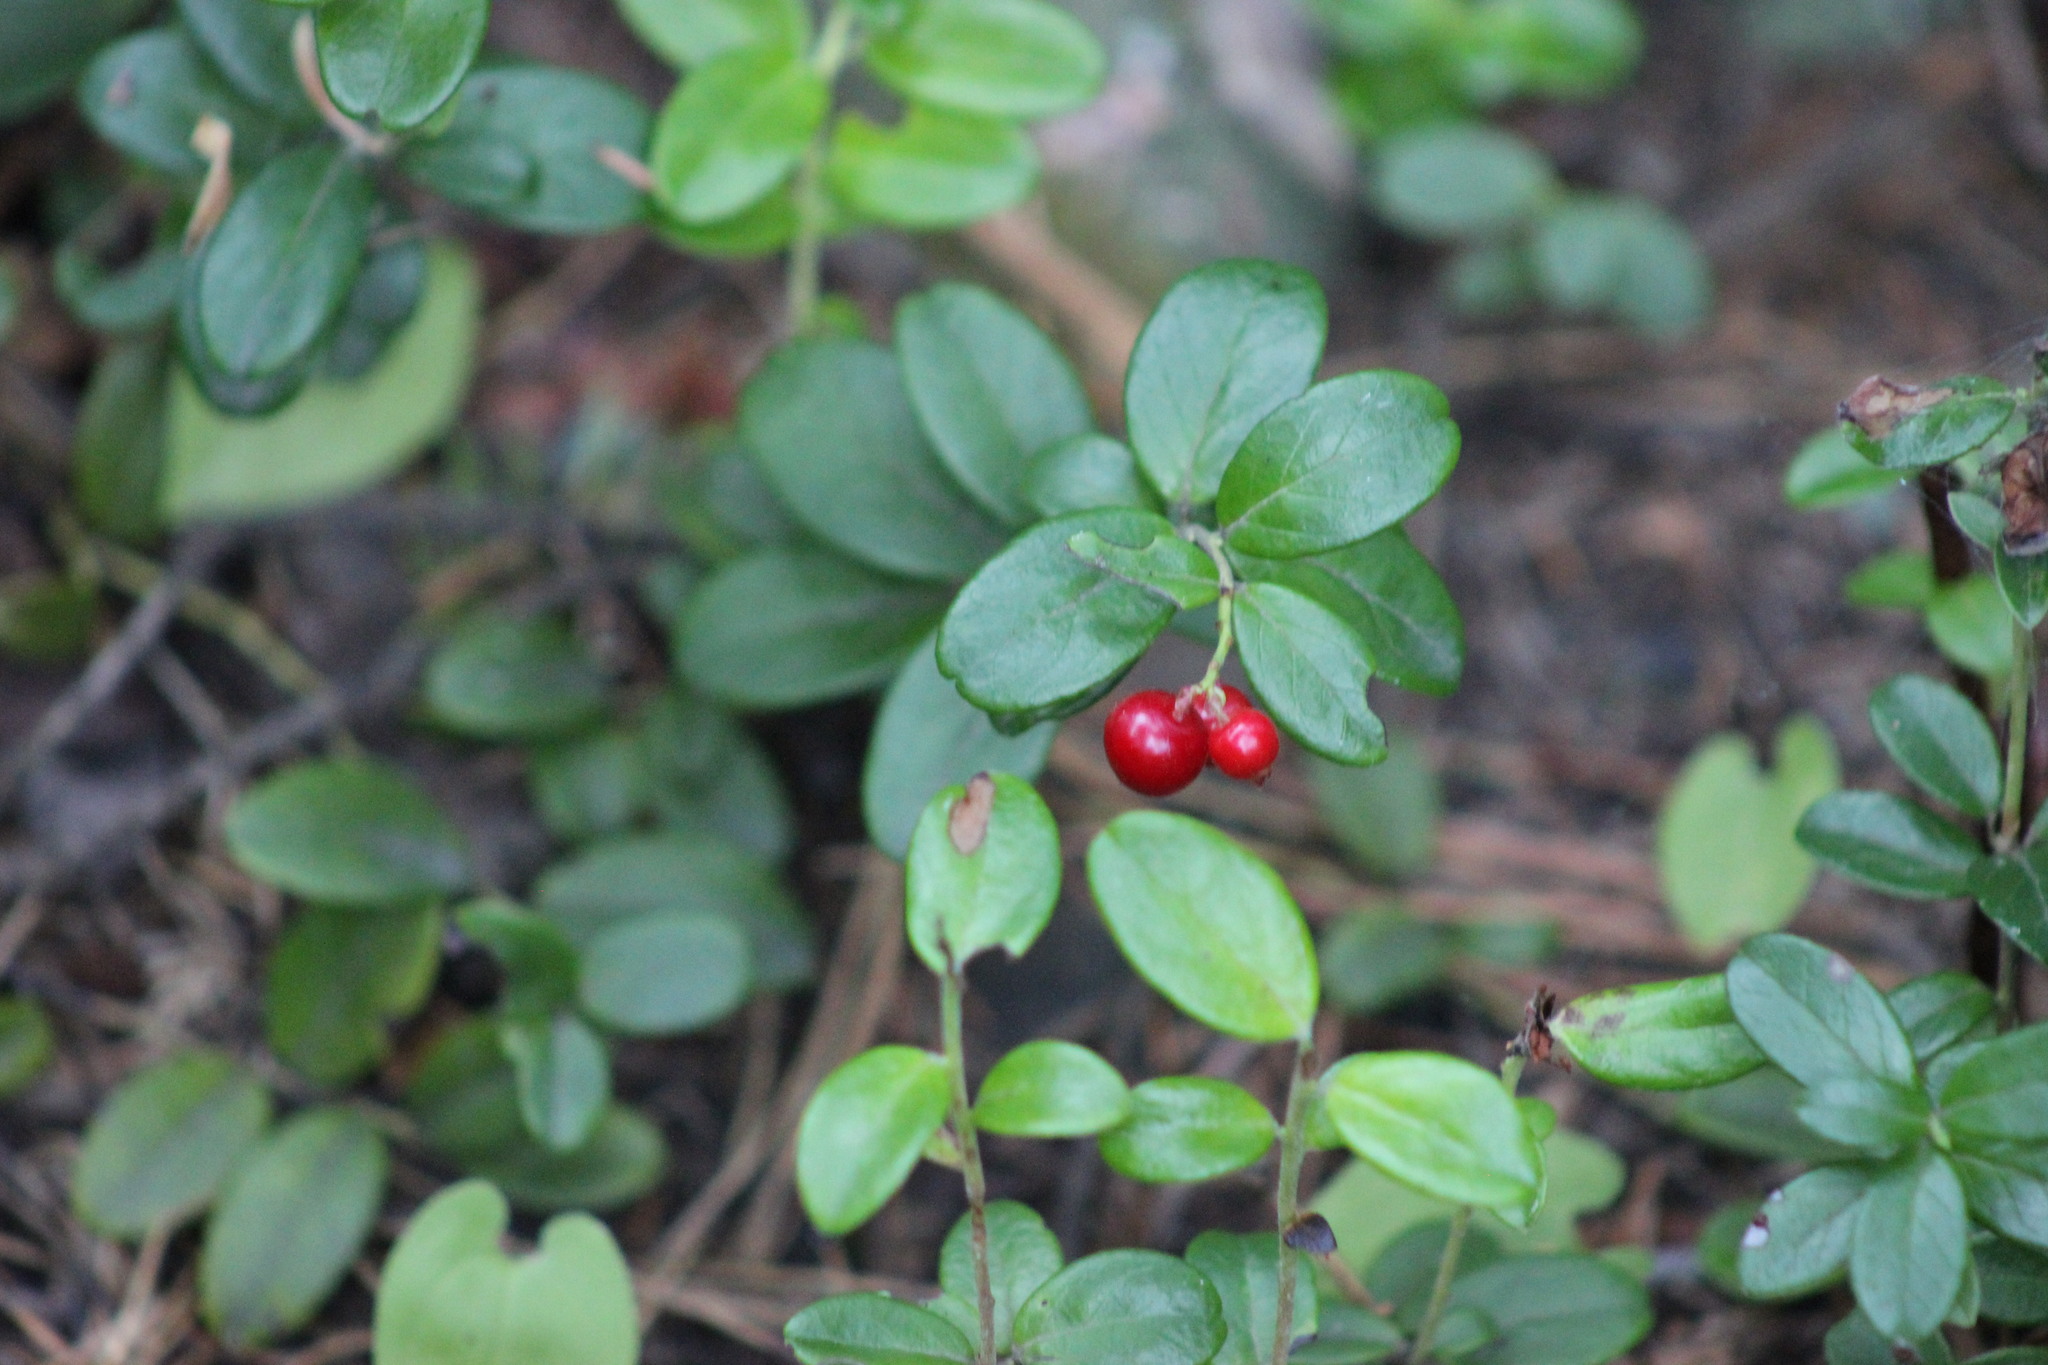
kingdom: Plantae
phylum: Tracheophyta
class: Magnoliopsida
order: Ericales
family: Ericaceae
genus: Vaccinium
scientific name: Vaccinium vitis-idaea
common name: Cowberry
